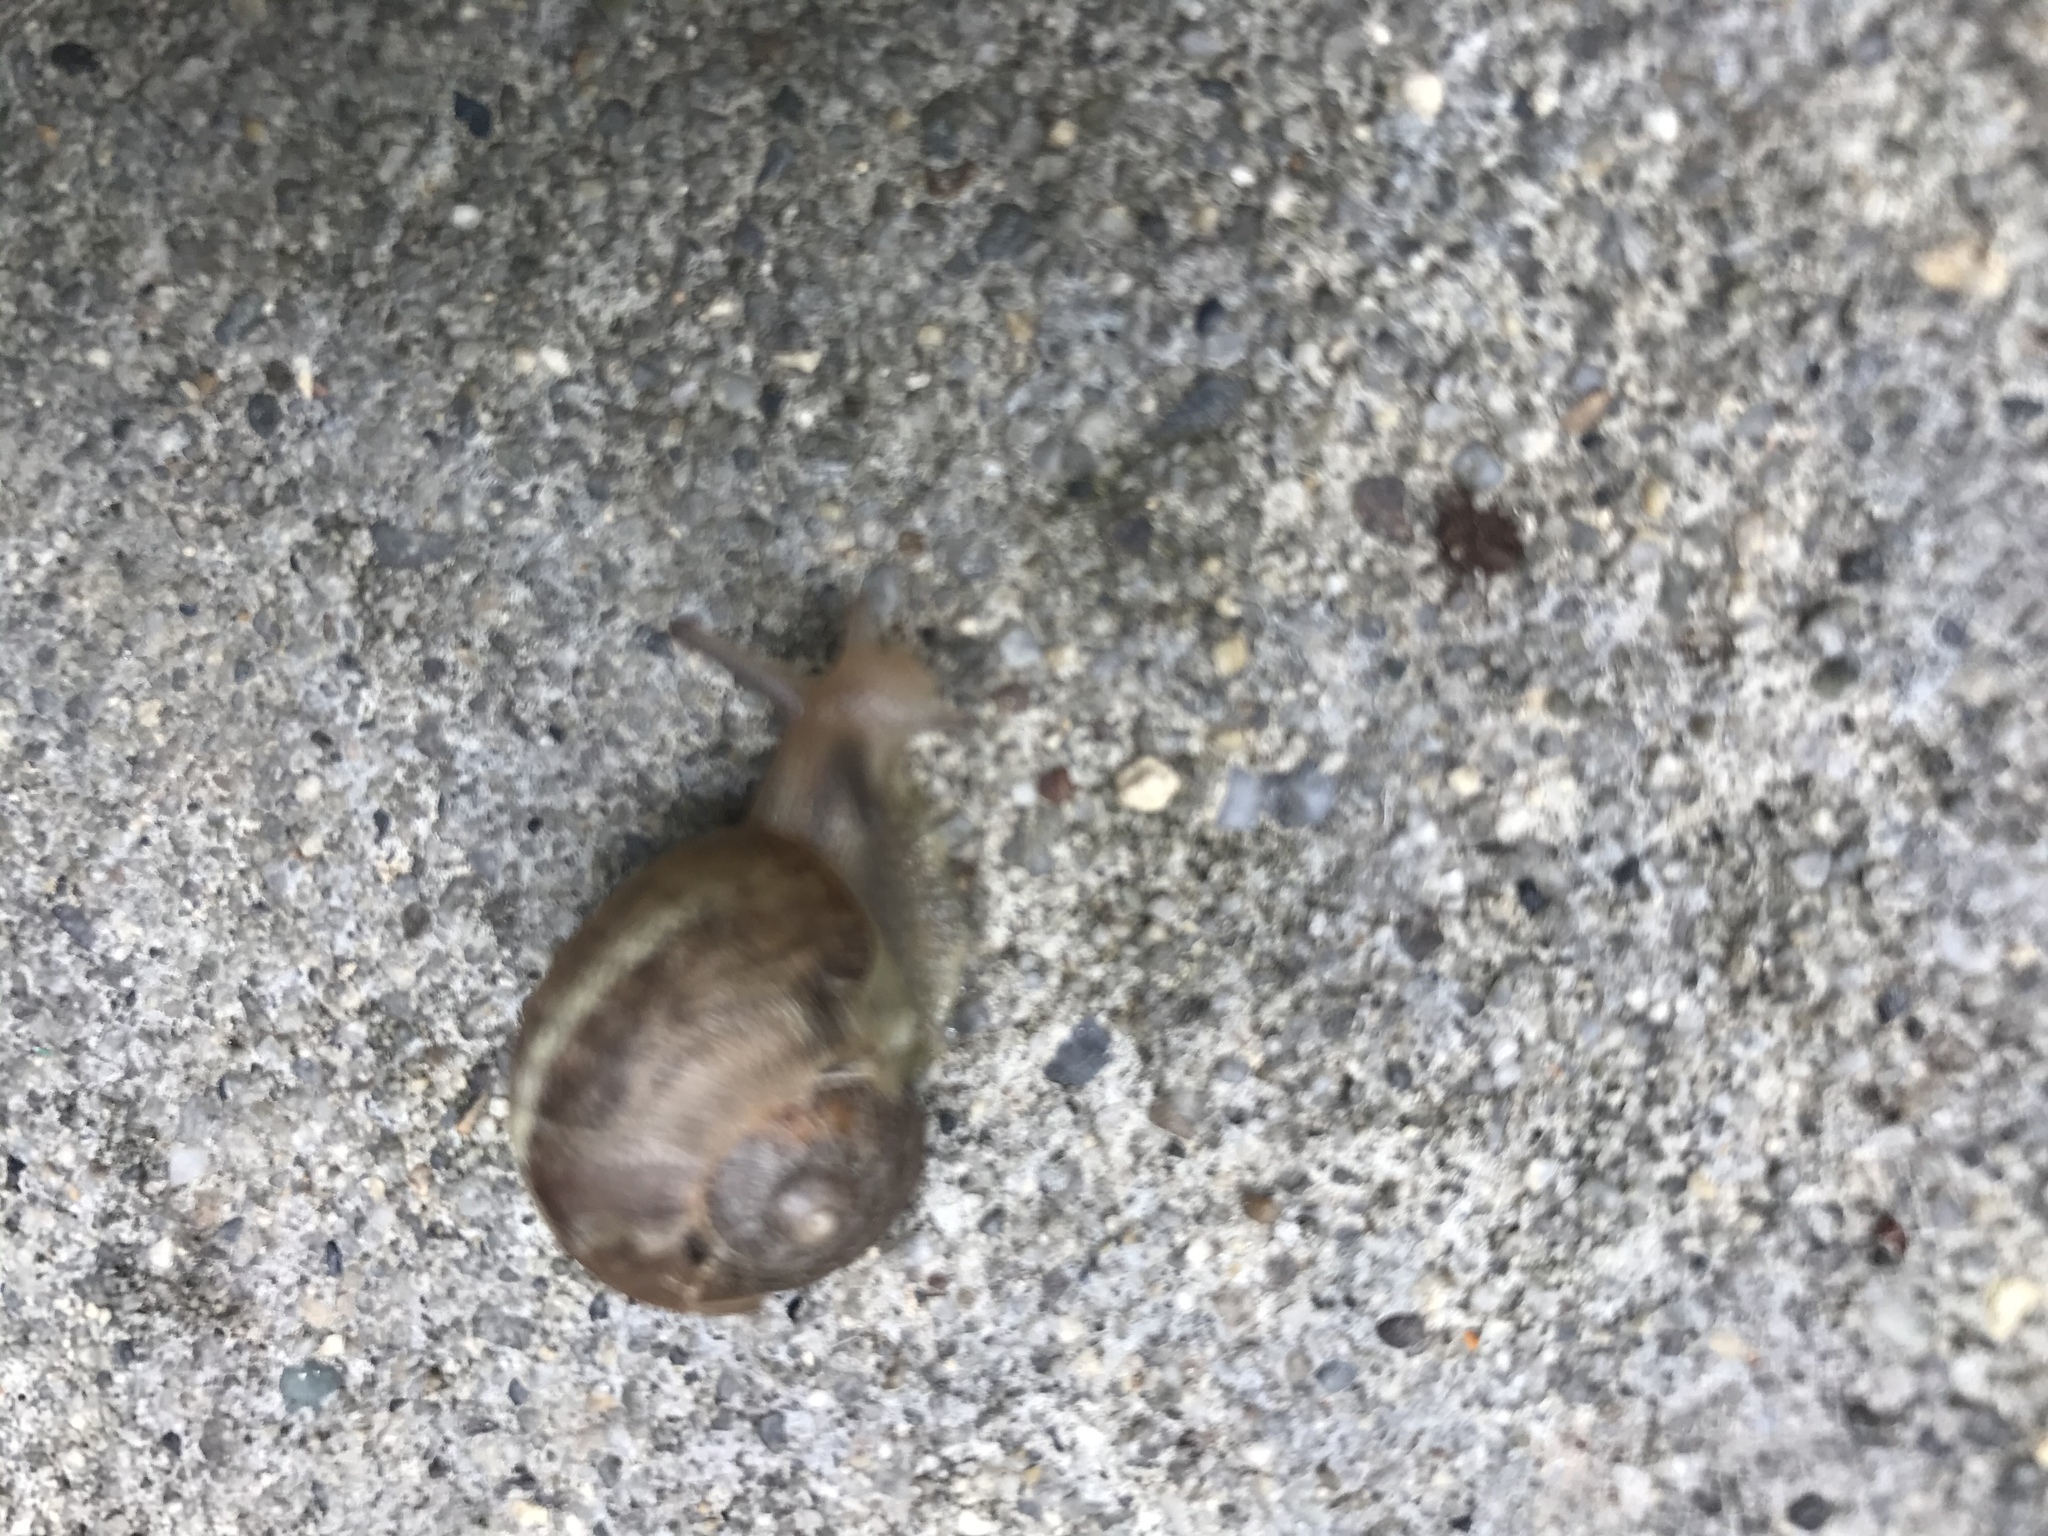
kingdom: Animalia
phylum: Mollusca
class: Gastropoda
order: Stylommatophora
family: Helicidae
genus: Cornu
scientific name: Cornu aspersum
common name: Brown garden snail
